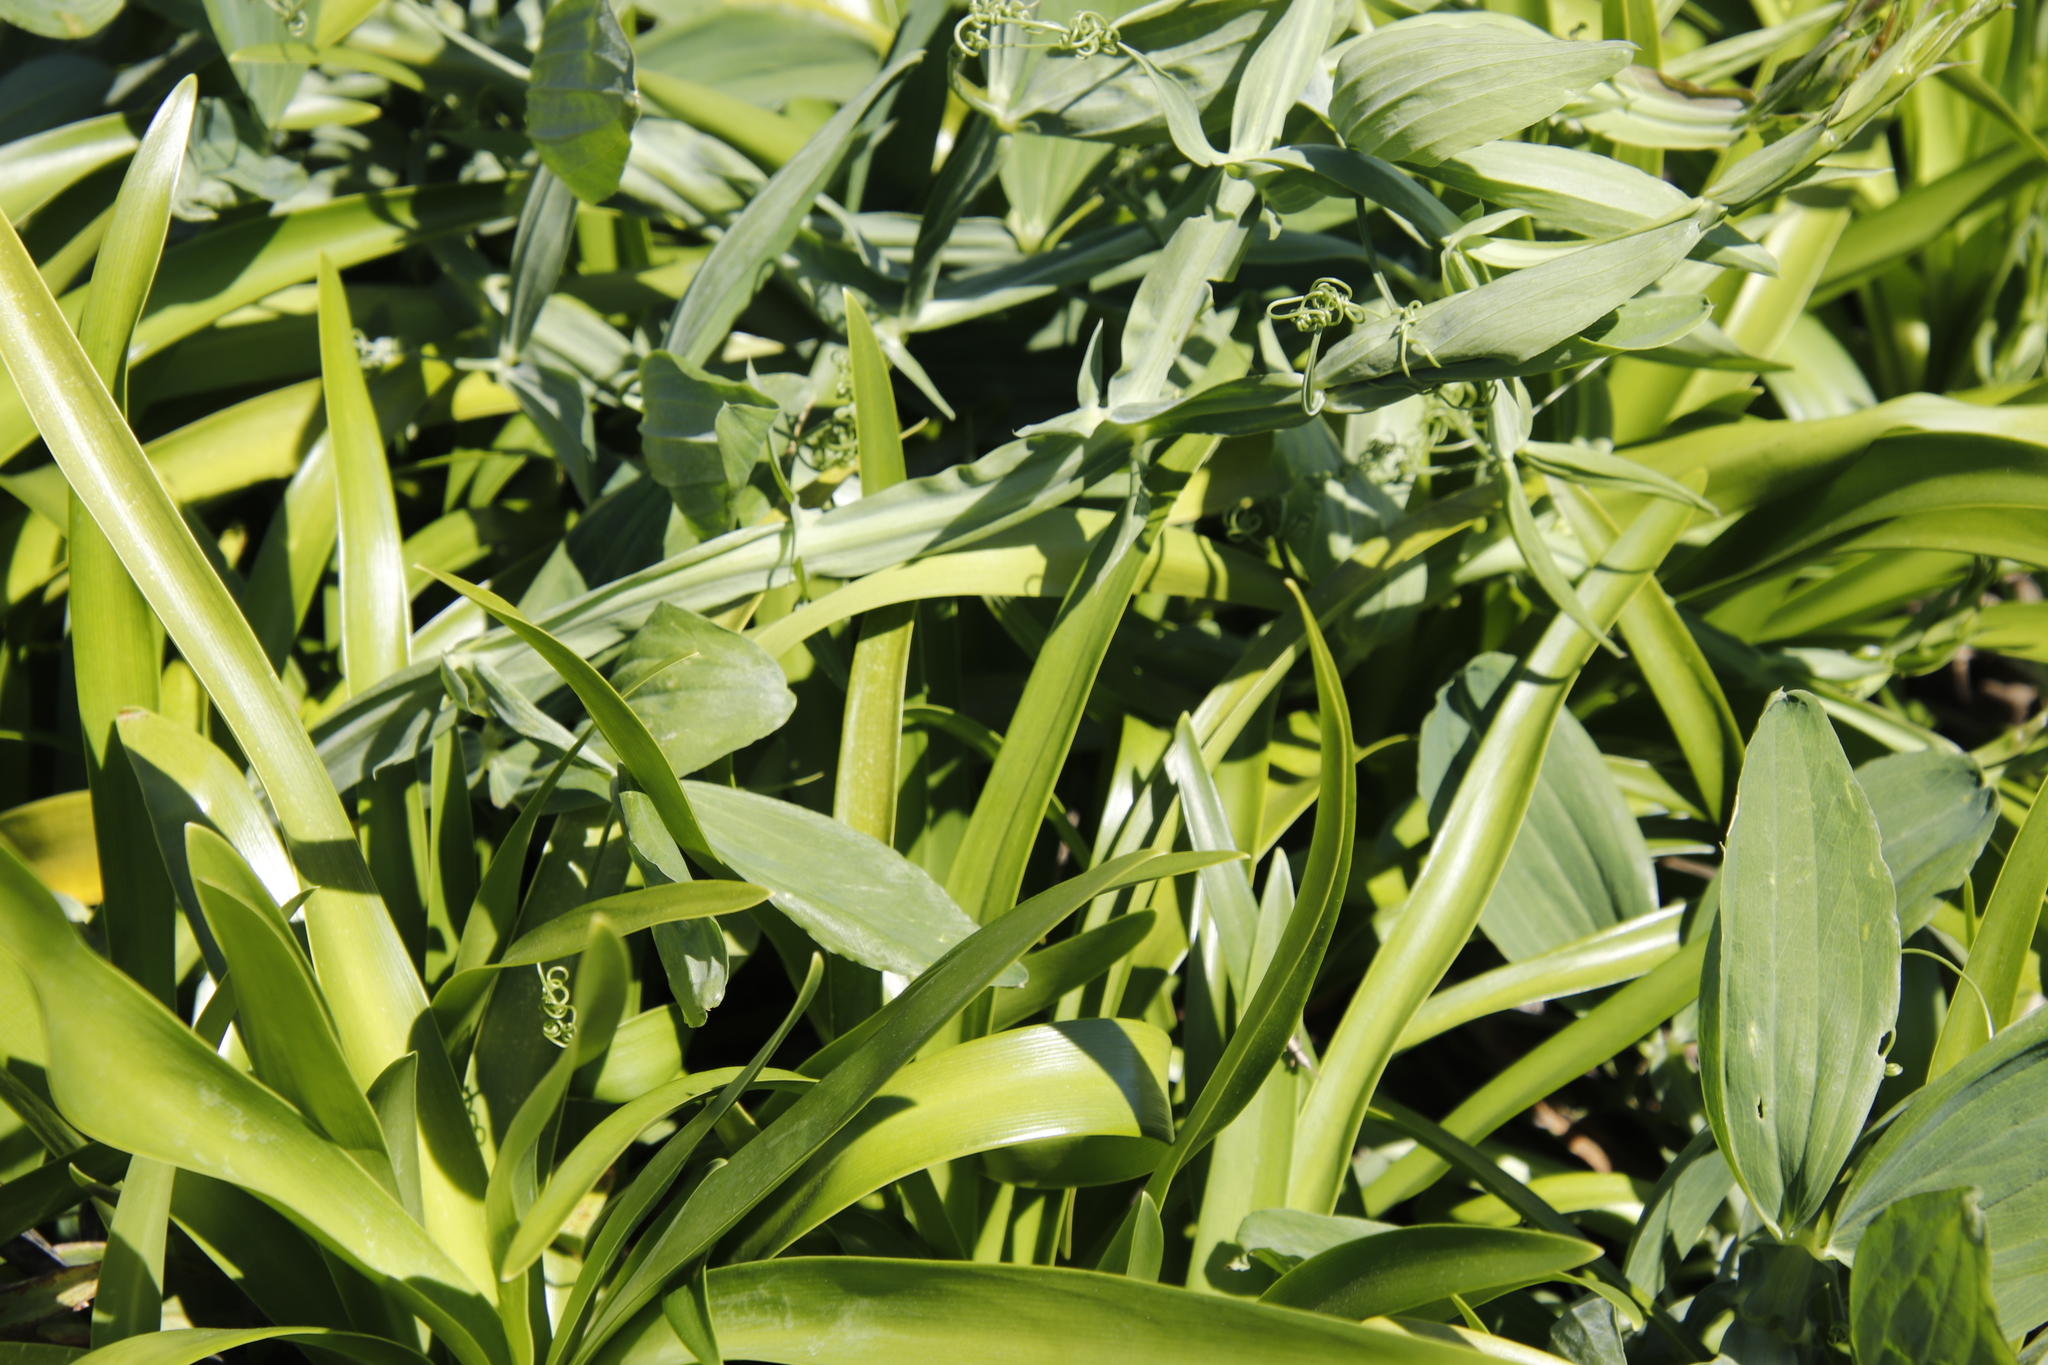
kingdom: Plantae
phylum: Tracheophyta
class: Magnoliopsida
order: Fabales
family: Fabaceae
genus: Lathyrus
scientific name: Lathyrus latifolius
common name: Perennial pea
